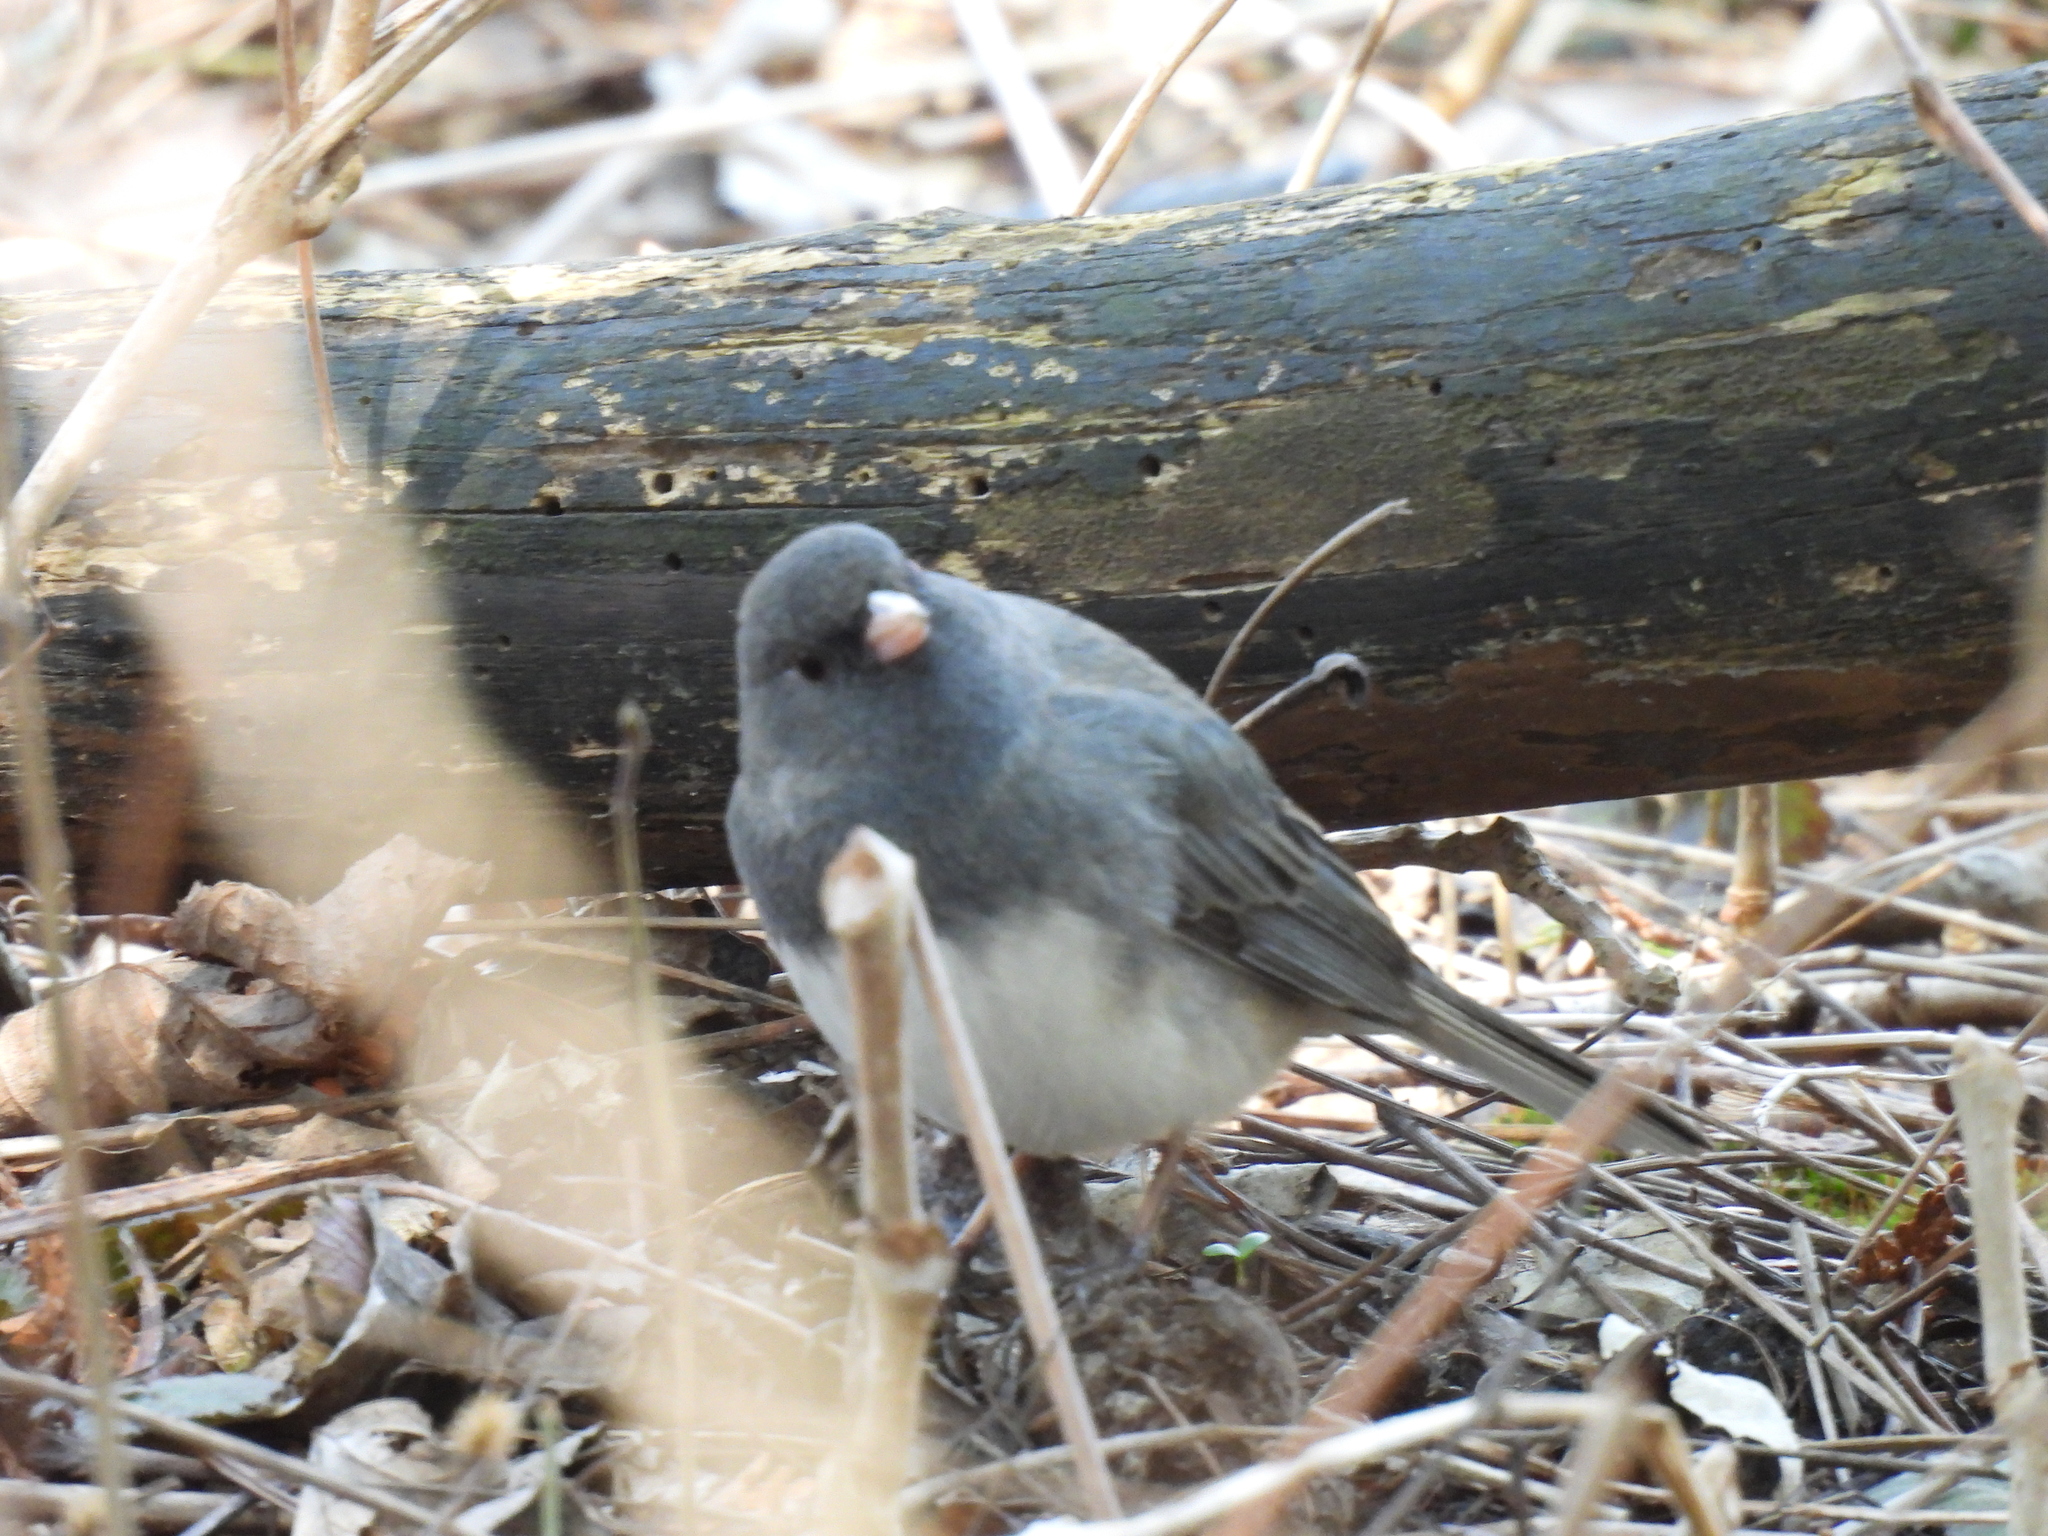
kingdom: Animalia
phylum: Chordata
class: Aves
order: Passeriformes
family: Passerellidae
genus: Junco
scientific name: Junco hyemalis
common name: Dark-eyed junco
